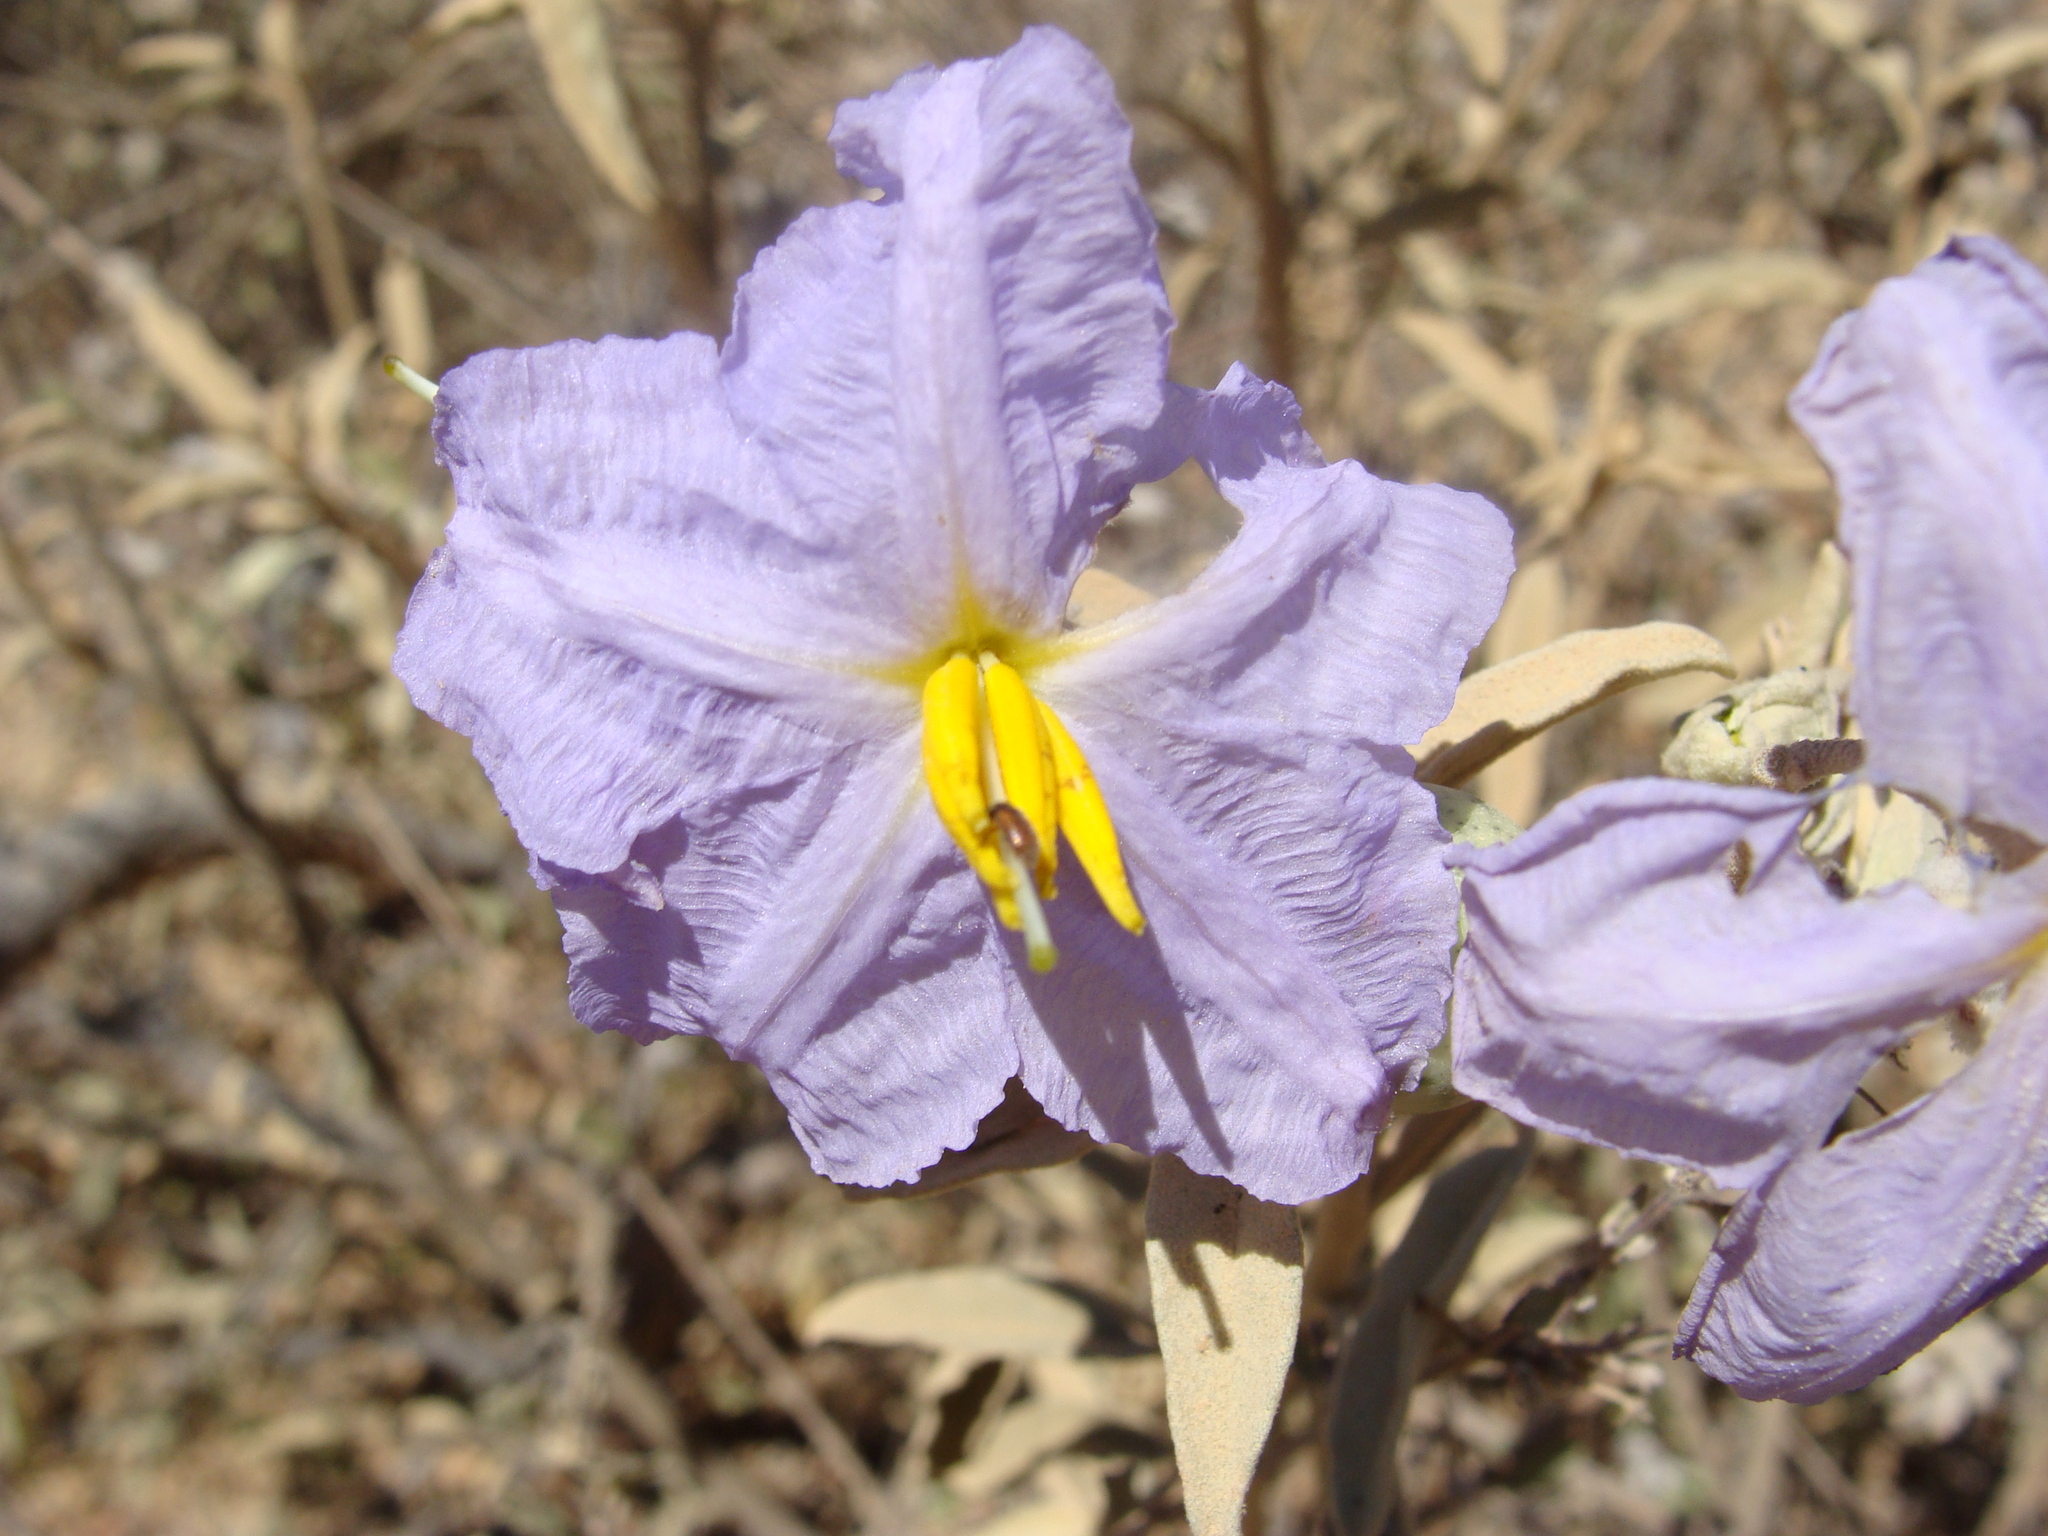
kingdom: Plantae
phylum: Tracheophyta
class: Magnoliopsida
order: Solanales
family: Solanaceae
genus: Solanum
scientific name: Solanum hindsianum
